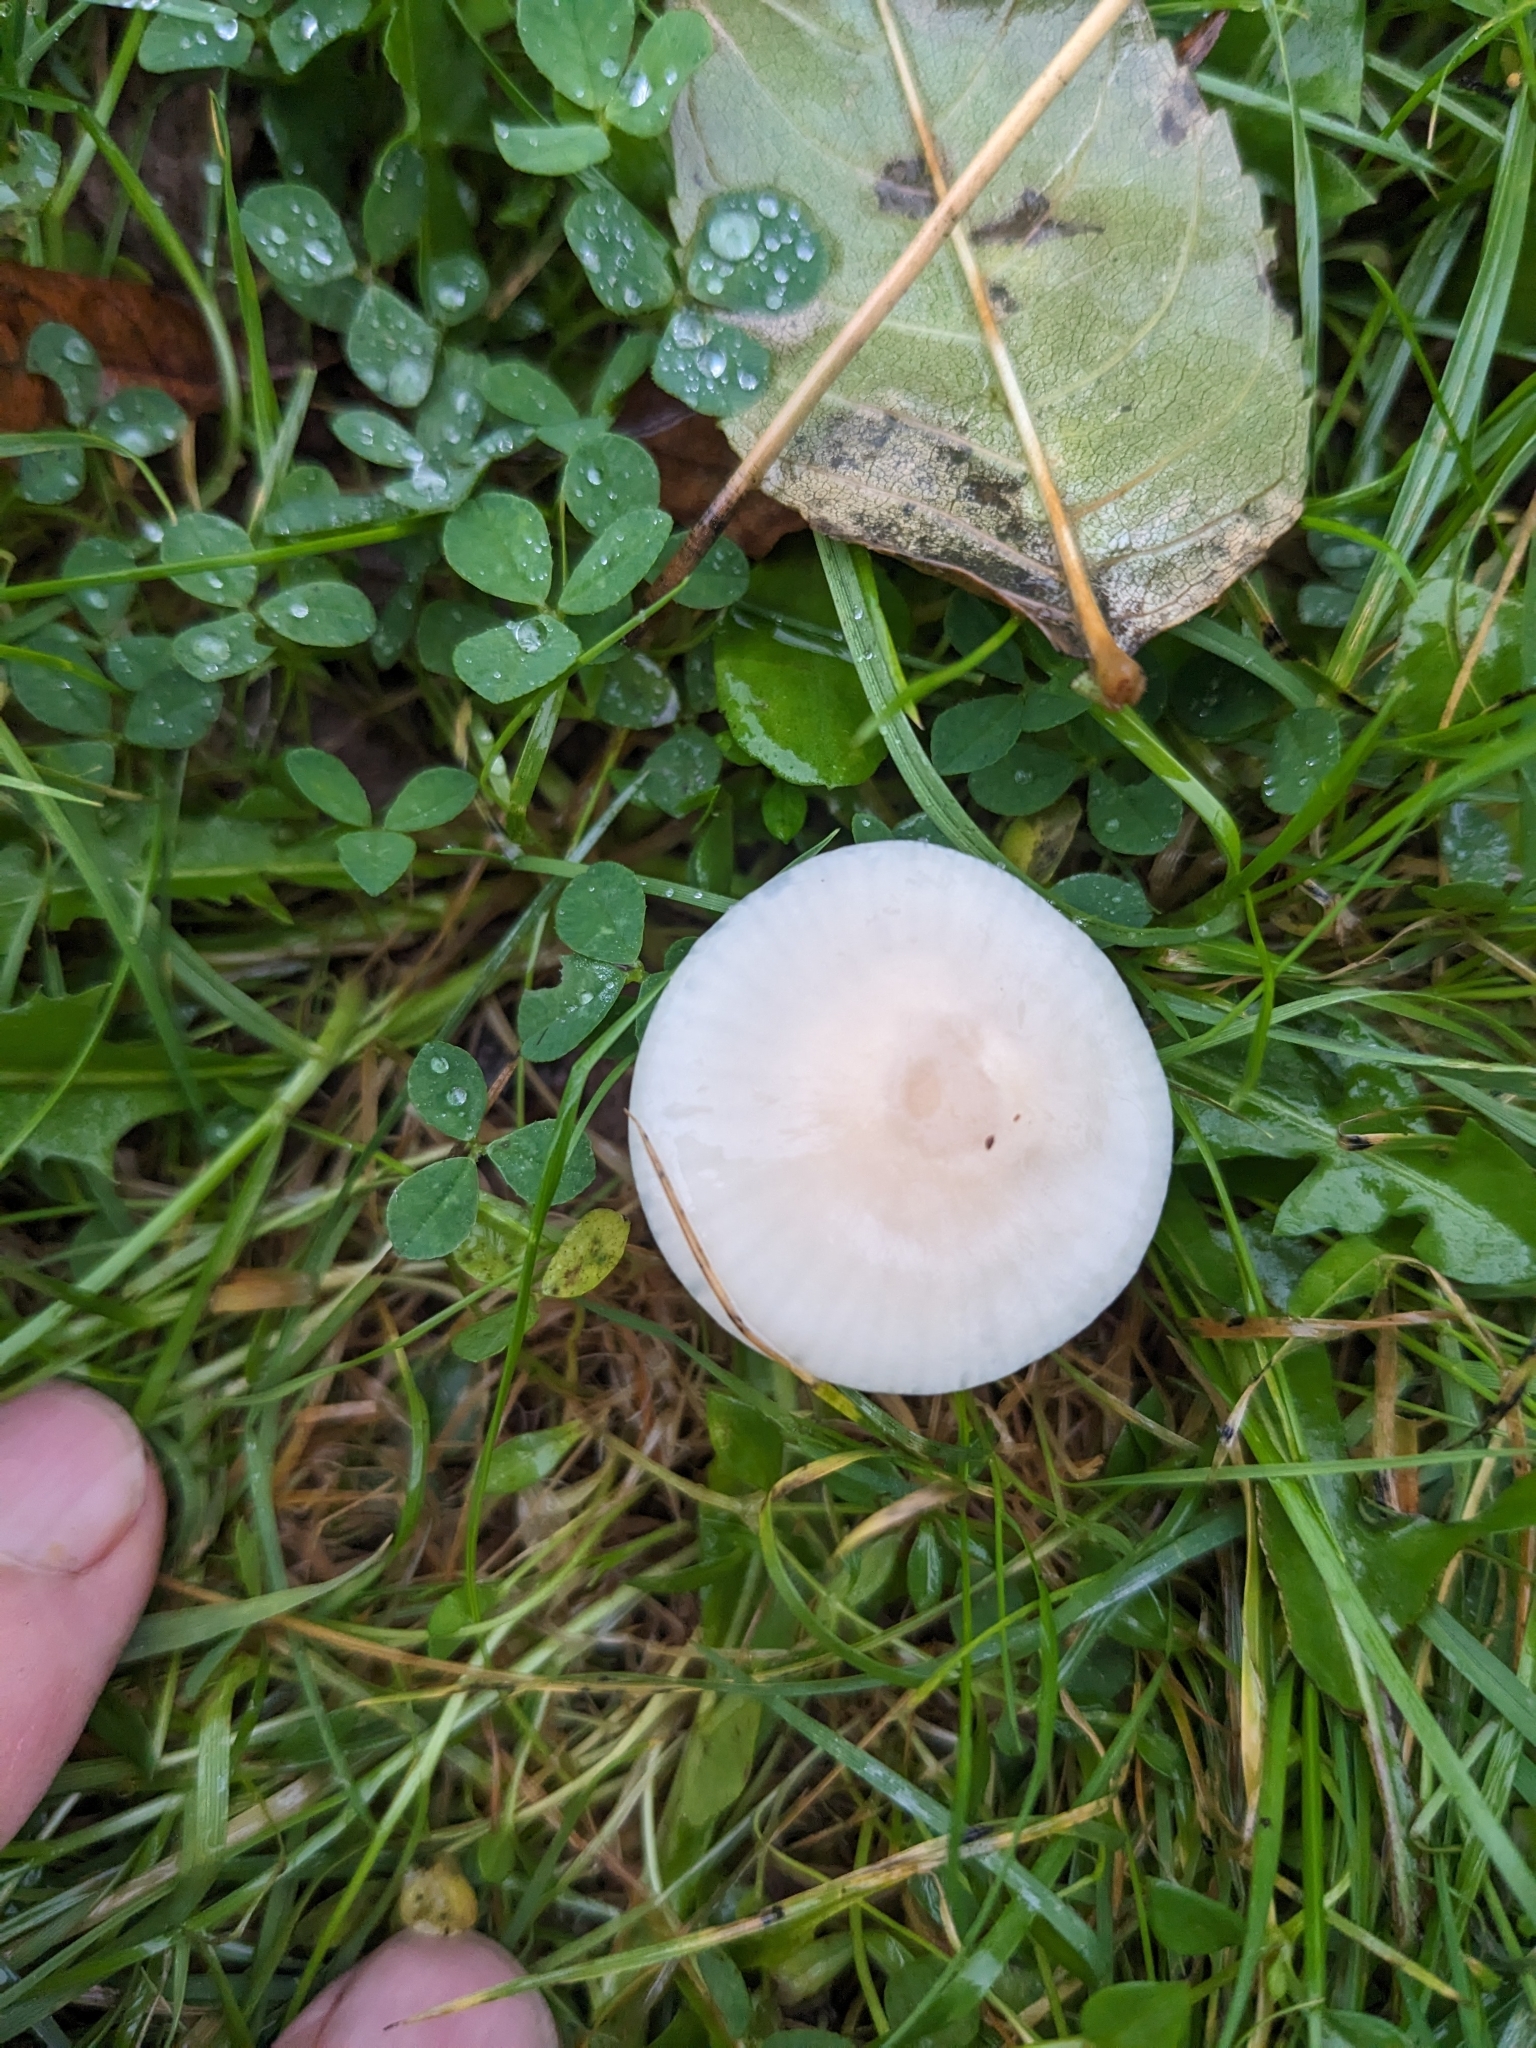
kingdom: Fungi
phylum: Basidiomycota
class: Agaricomycetes
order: Agaricales
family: Hygrophoraceae
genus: Cuphophyllus
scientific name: Cuphophyllus virgineus
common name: Snowy waxcap
